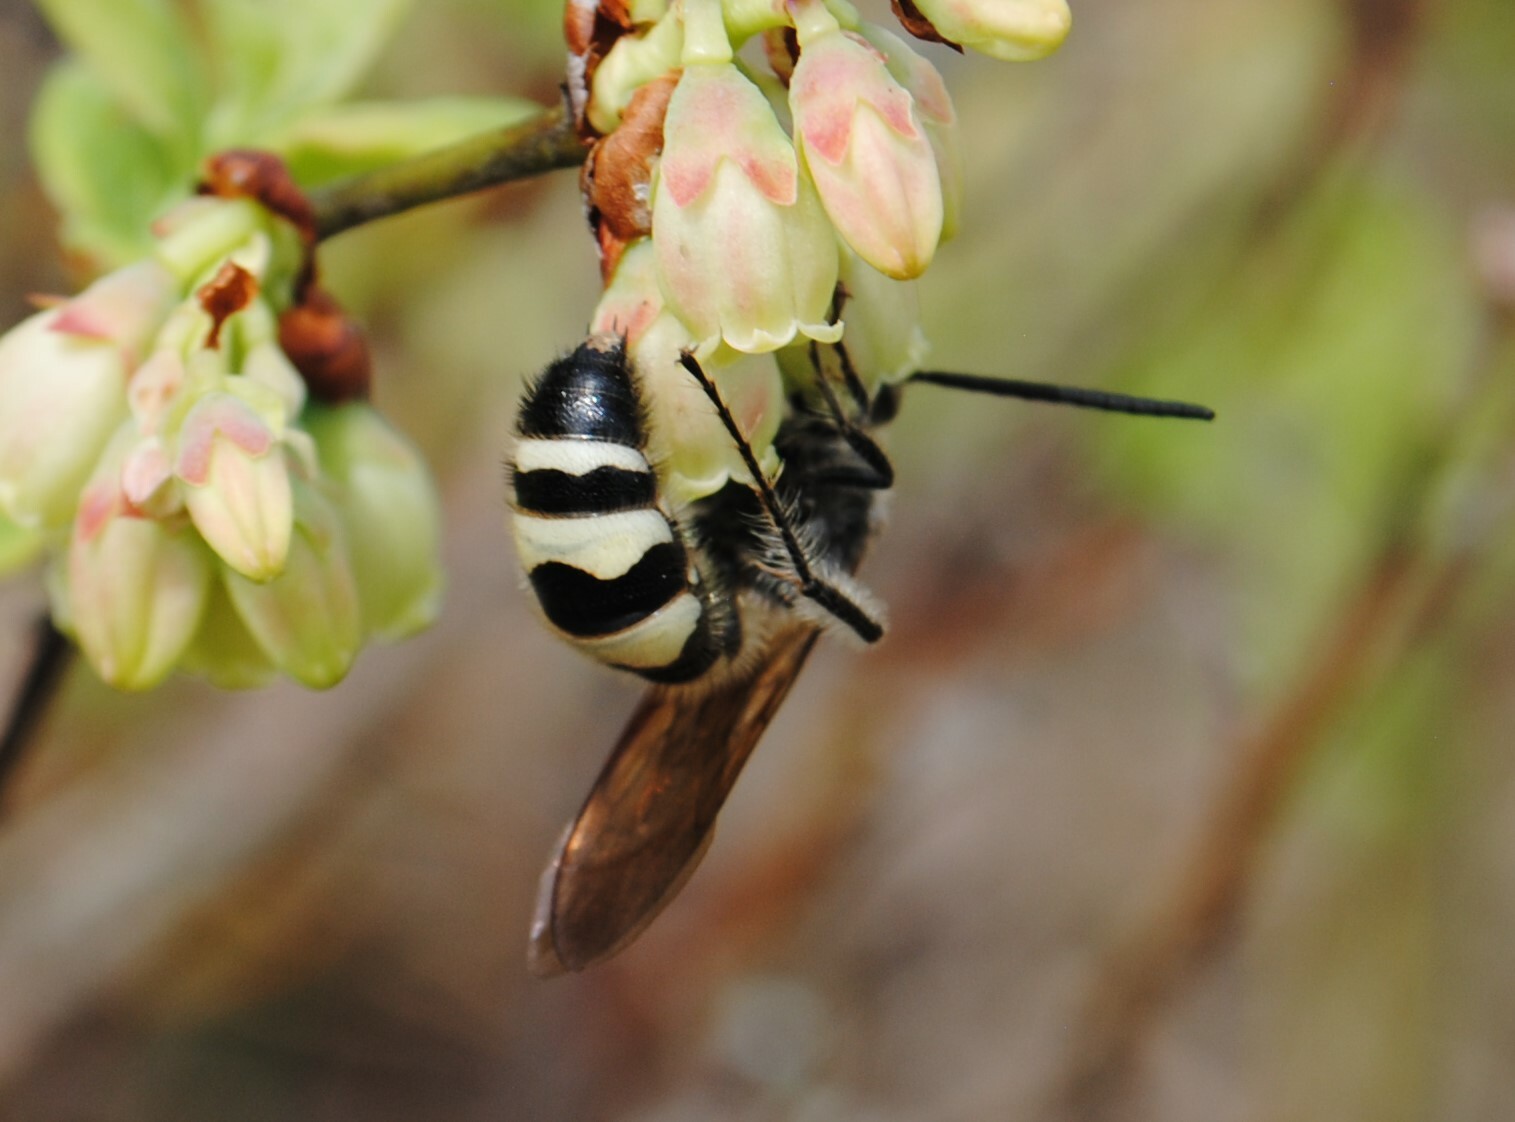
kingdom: Animalia
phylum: Arthropoda
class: Insecta
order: Hymenoptera
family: Scoliidae
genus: Dielis
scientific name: Dielis
